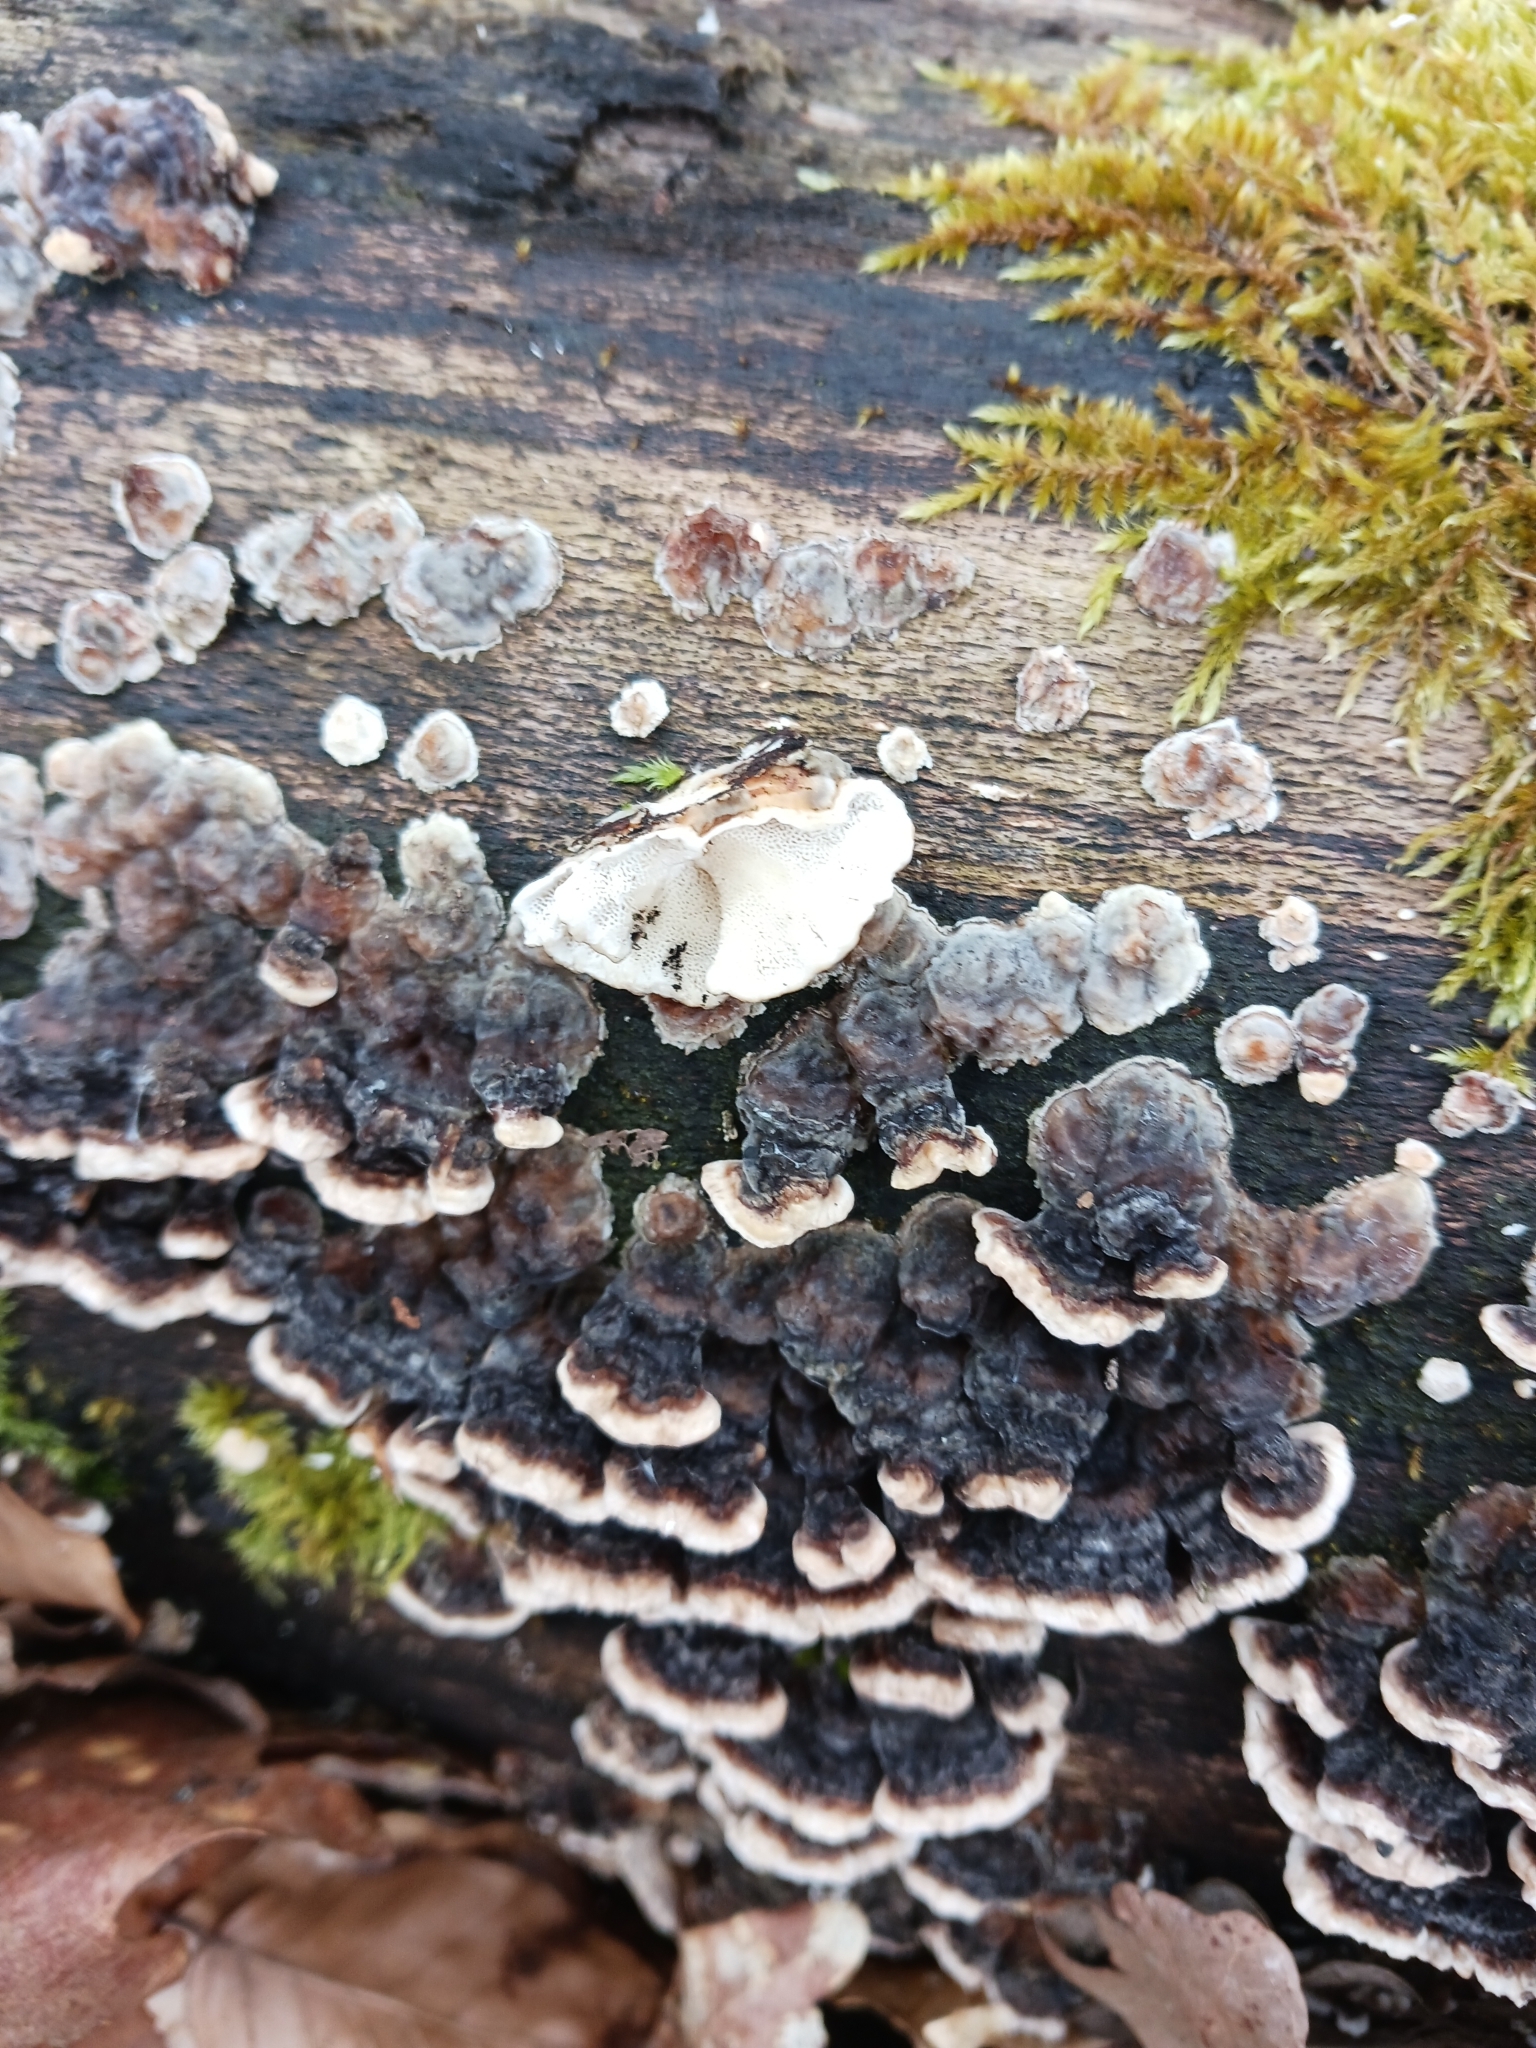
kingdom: Fungi
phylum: Basidiomycota
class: Agaricomycetes
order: Polyporales
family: Polyporaceae
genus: Trametes
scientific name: Trametes versicolor
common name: Turkeytail
